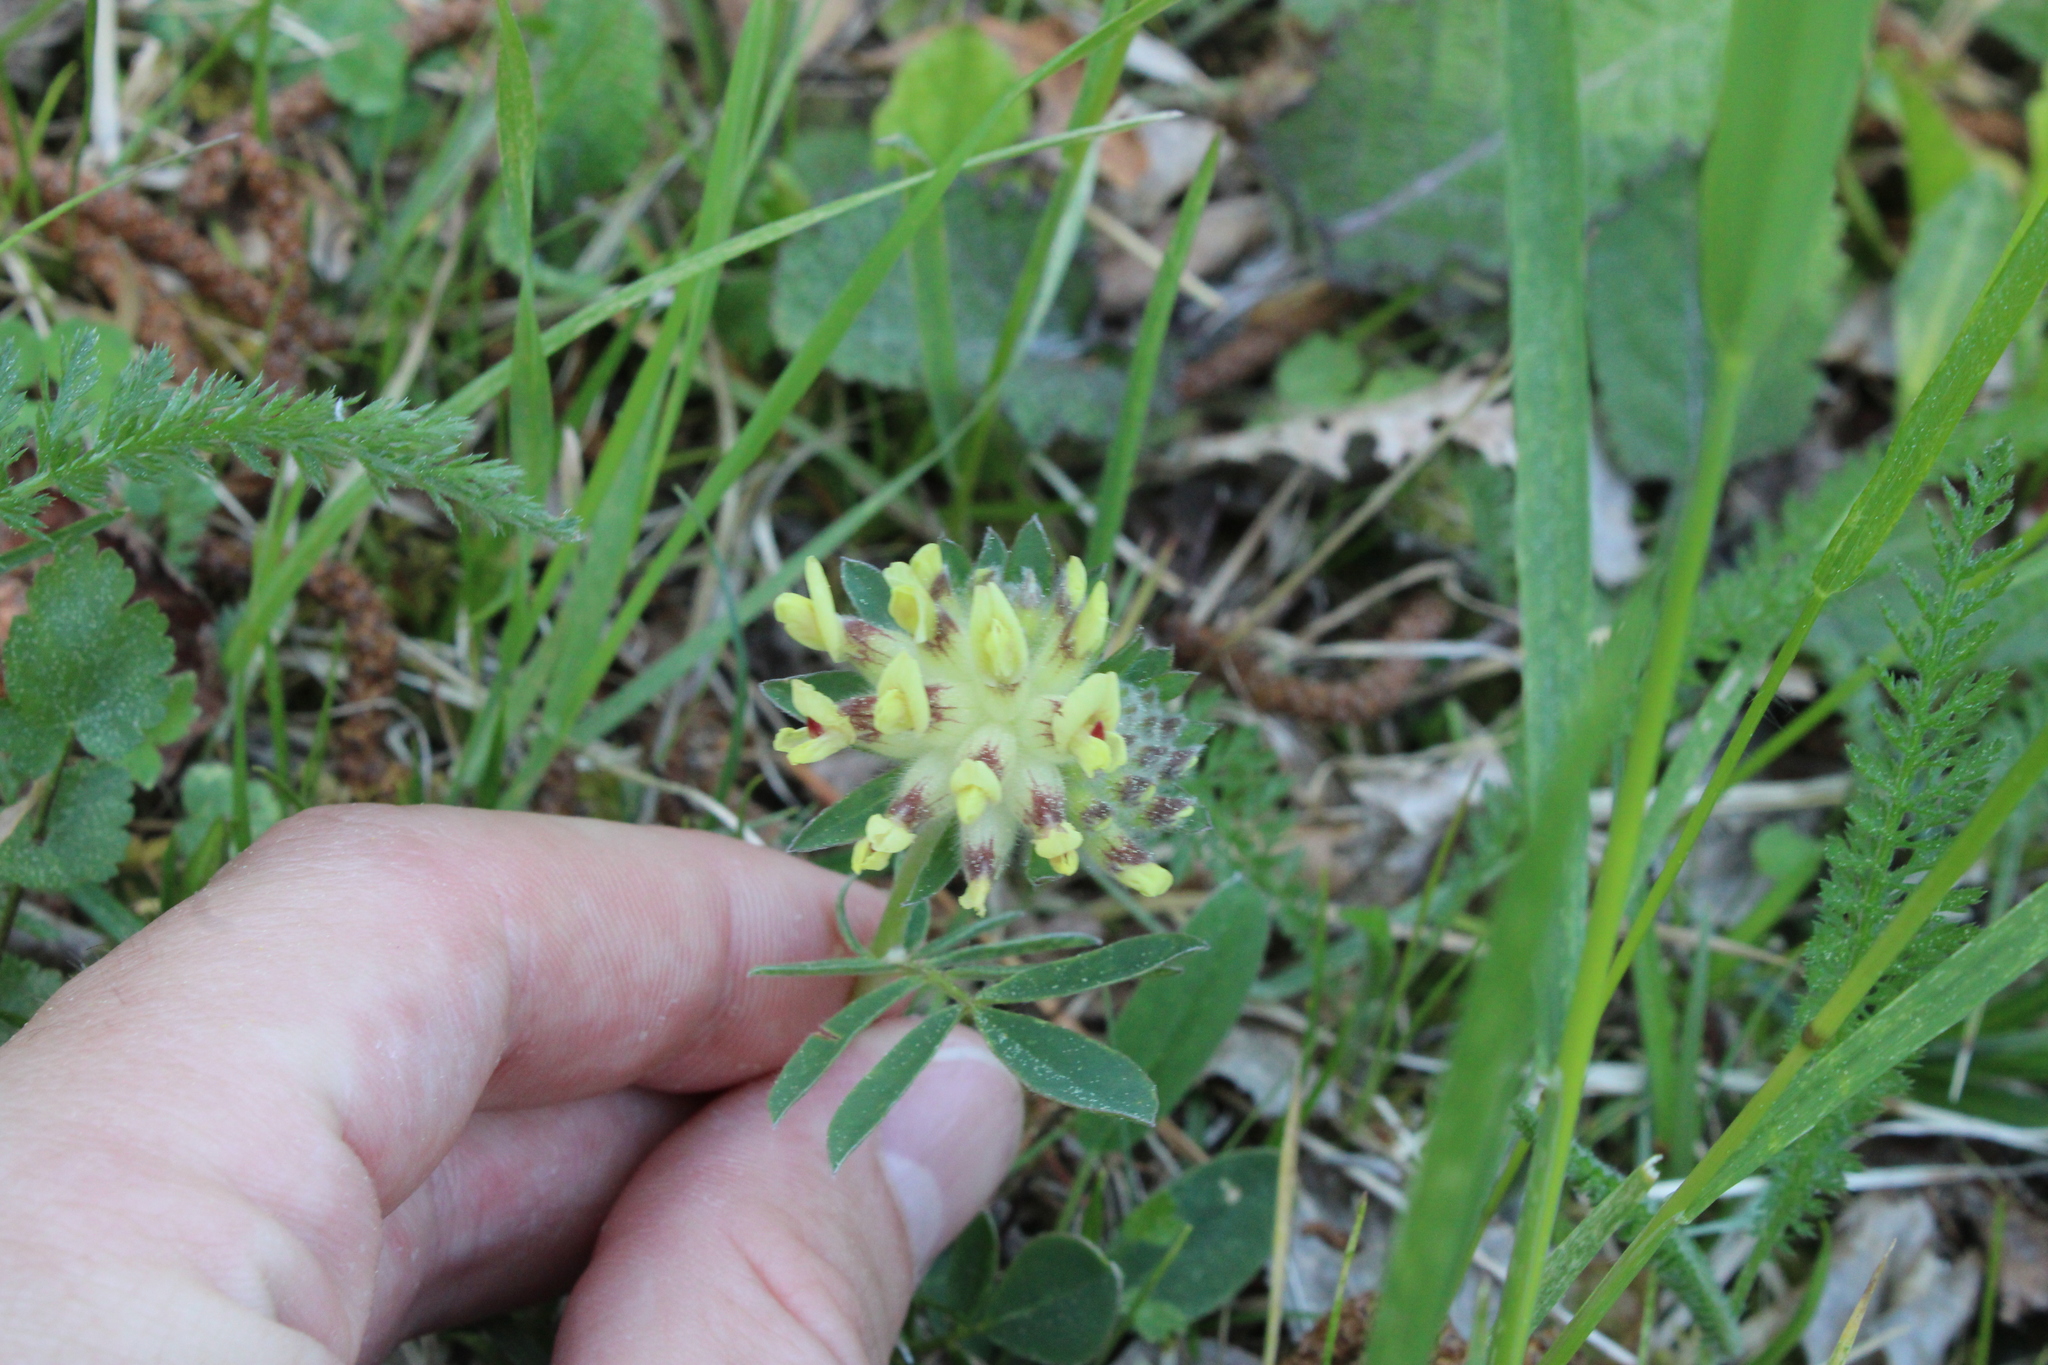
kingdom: Plantae
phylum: Tracheophyta
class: Magnoliopsida
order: Fabales
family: Fabaceae
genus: Anthyllis
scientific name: Anthyllis vulneraria
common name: Kidney vetch
